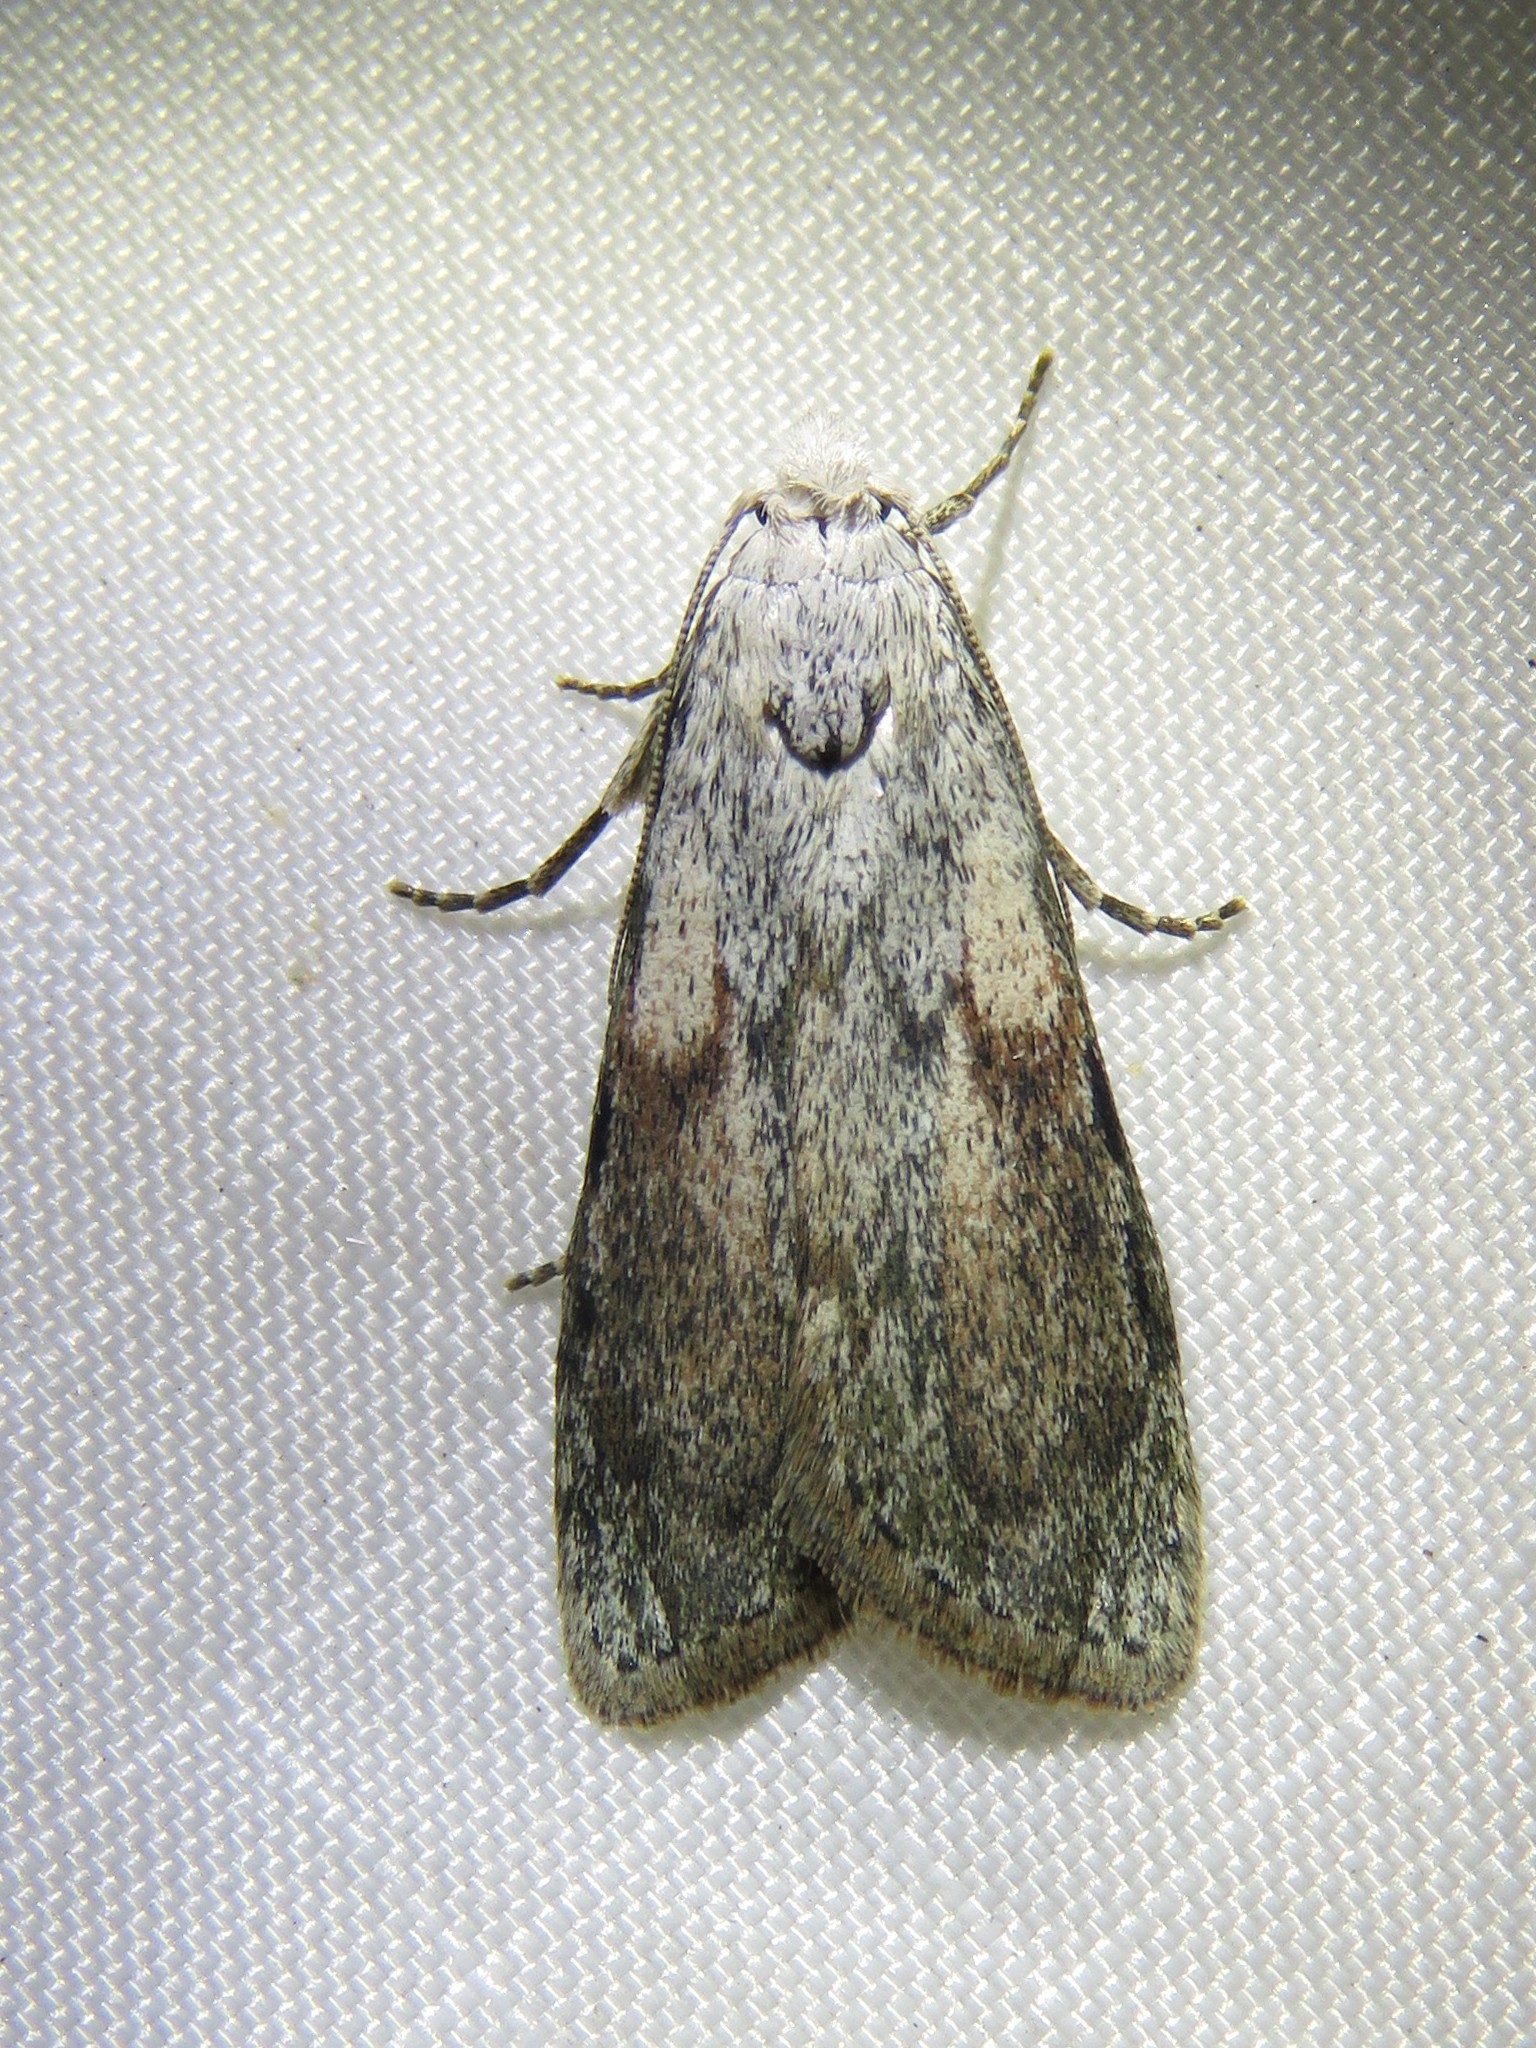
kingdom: Animalia
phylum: Arthropoda
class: Insecta
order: Lepidoptera
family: Pyralidae
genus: Aphomia
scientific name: Aphomia sociella
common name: Bee moth
